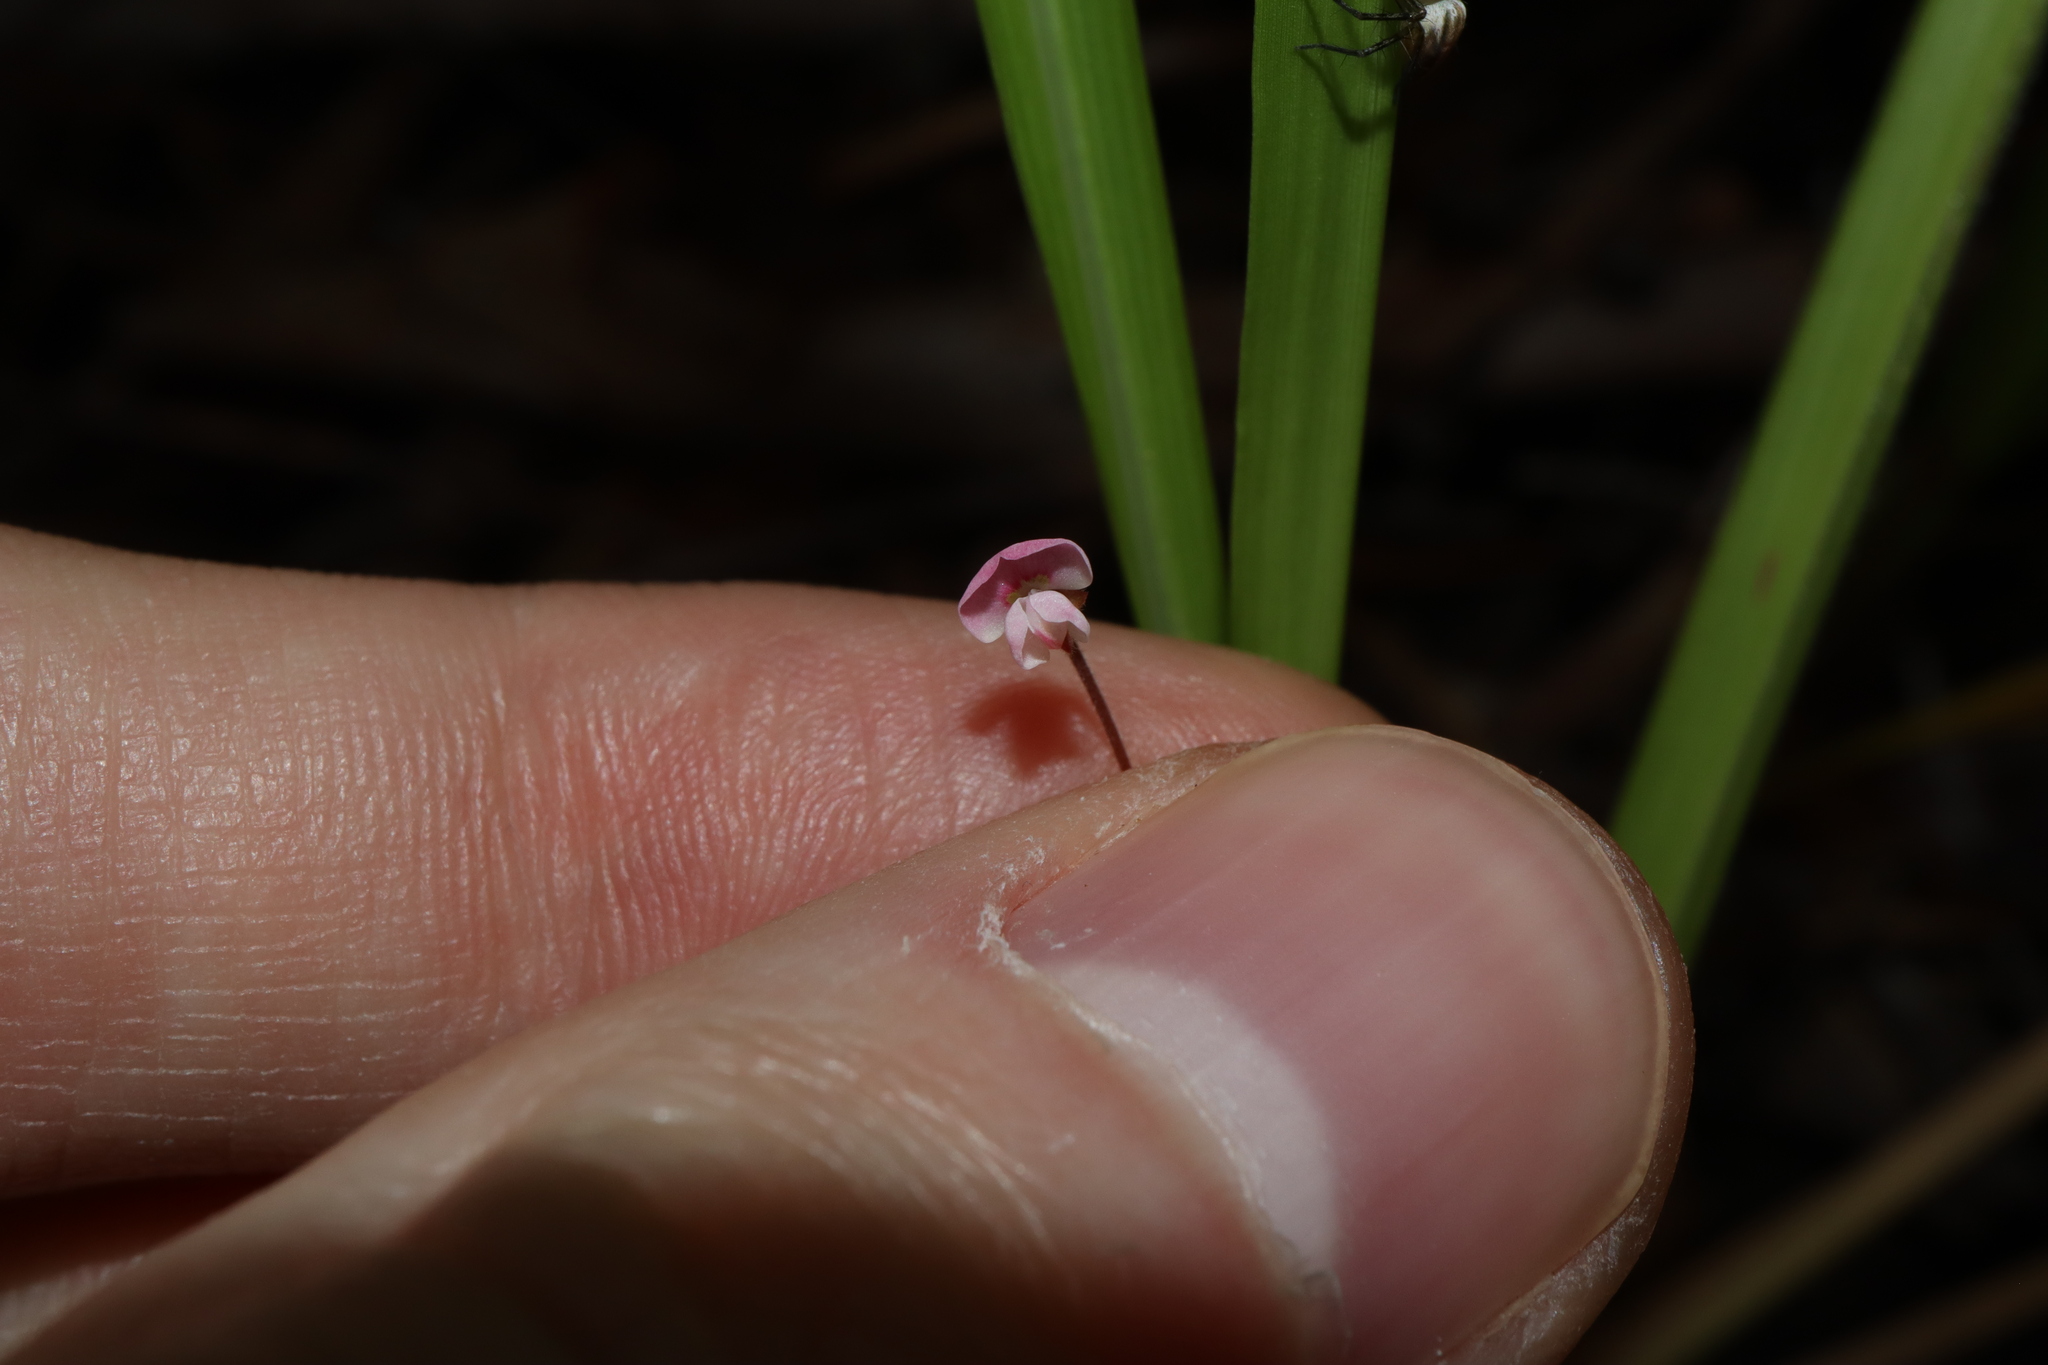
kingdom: Plantae
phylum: Tracheophyta
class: Magnoliopsida
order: Fabales
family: Fabaceae
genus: Pullenia
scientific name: Pullenia gunnii
